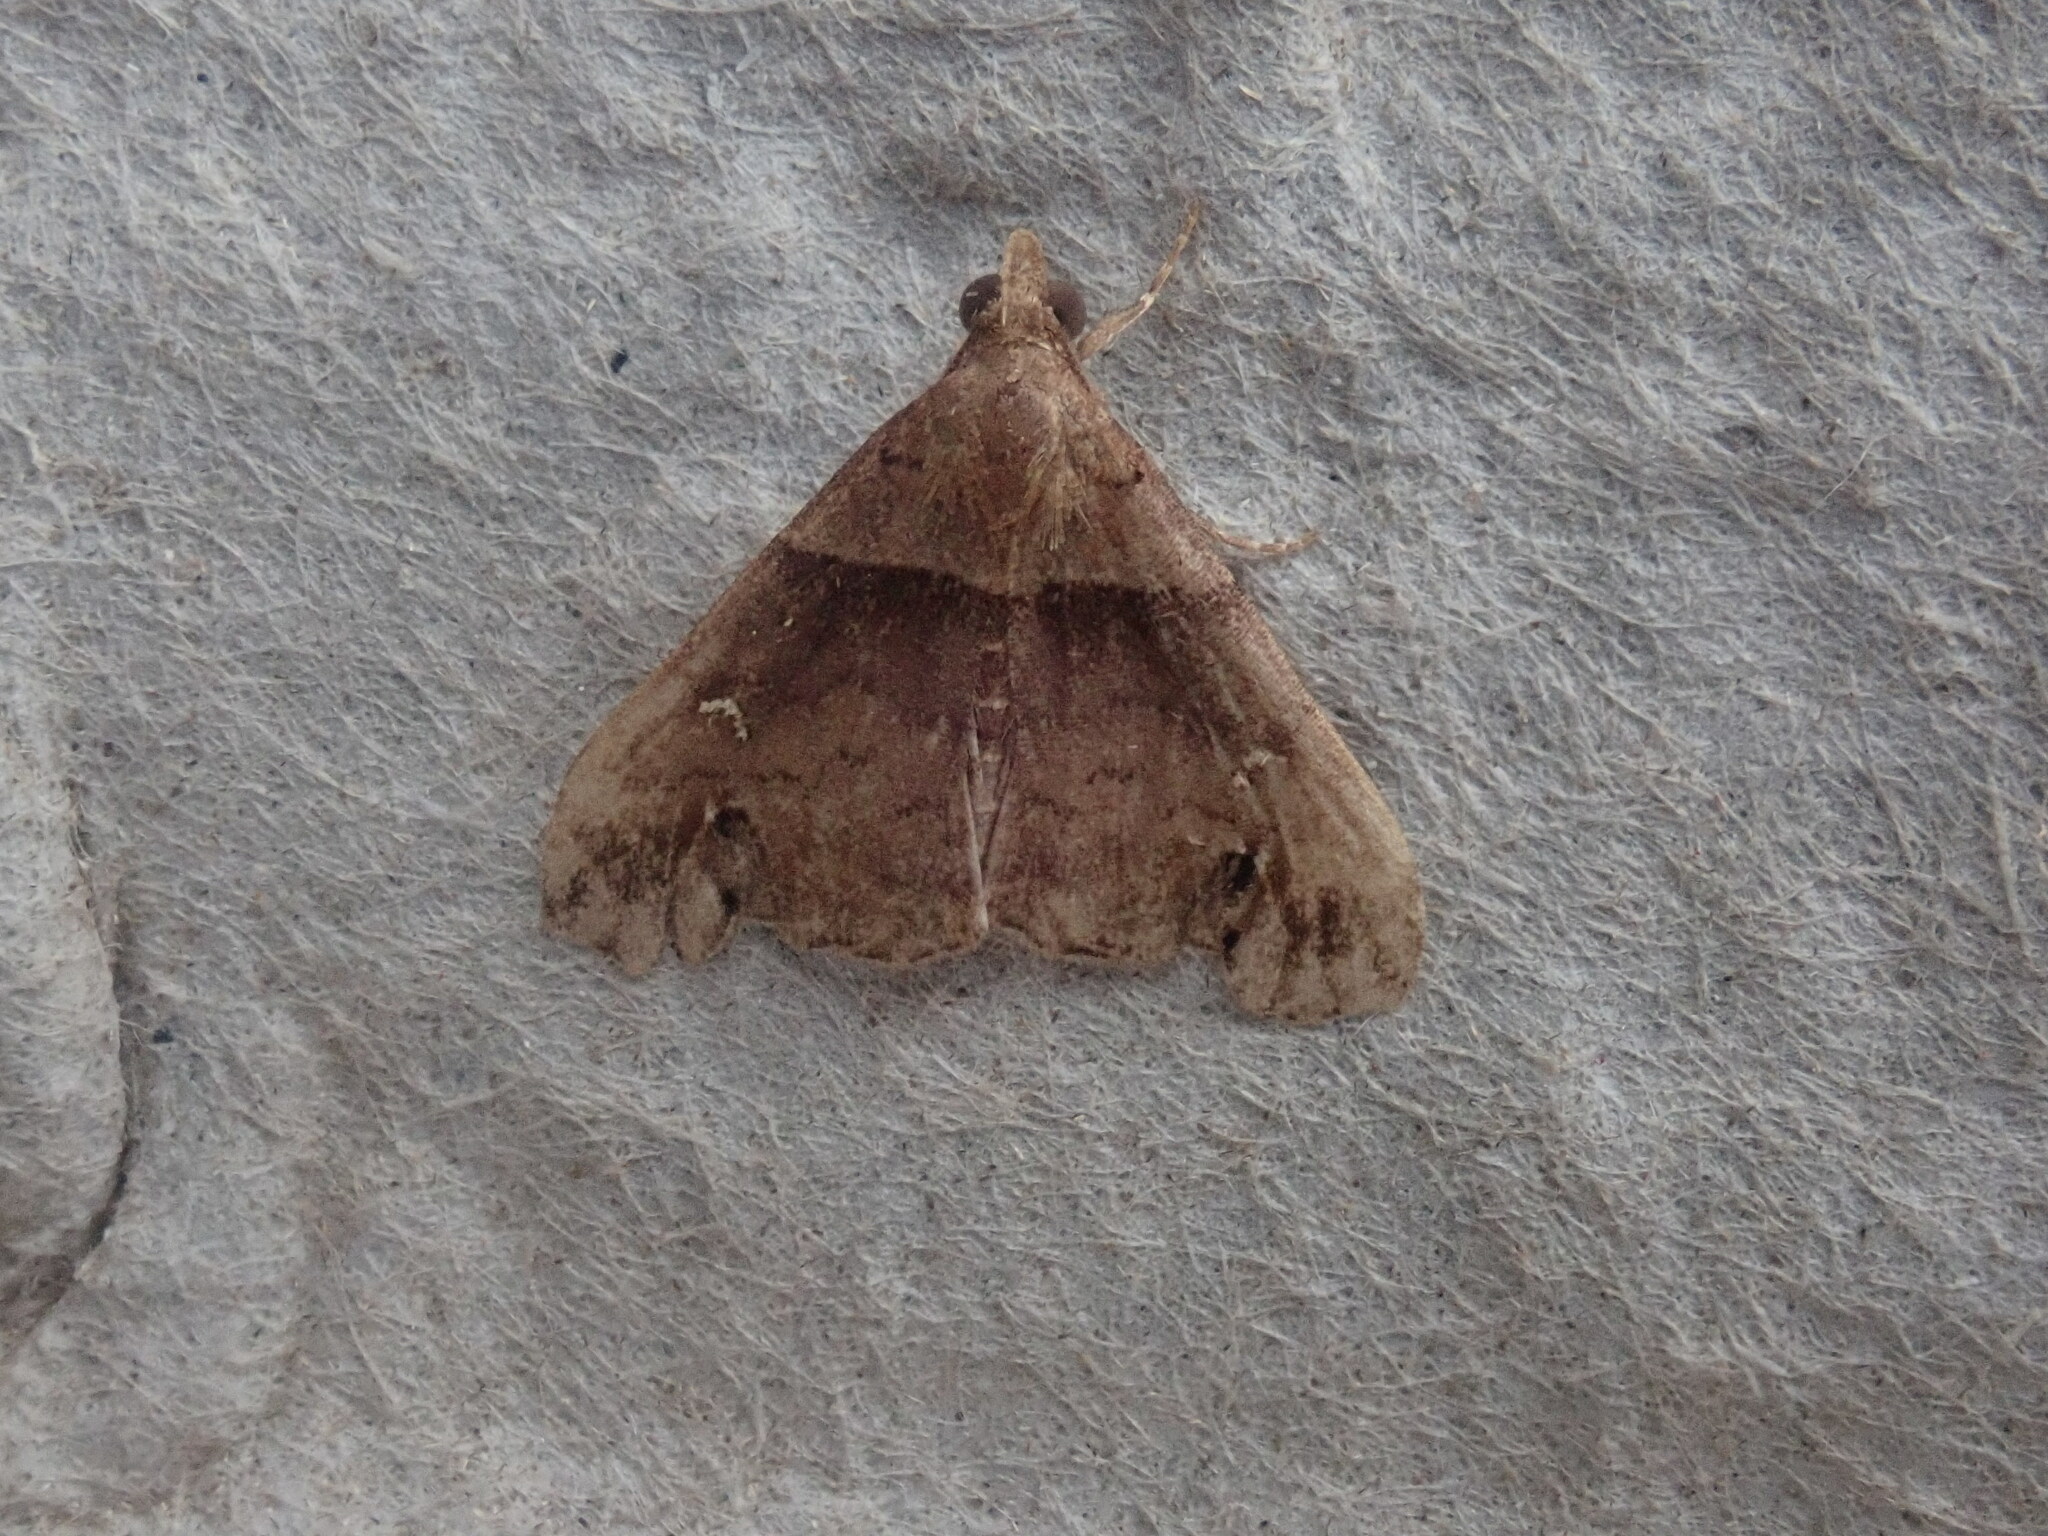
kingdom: Animalia
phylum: Arthropoda
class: Insecta
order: Lepidoptera
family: Erebidae
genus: Lascoria
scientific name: Lascoria ambigualis
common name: Ambiguous moth
